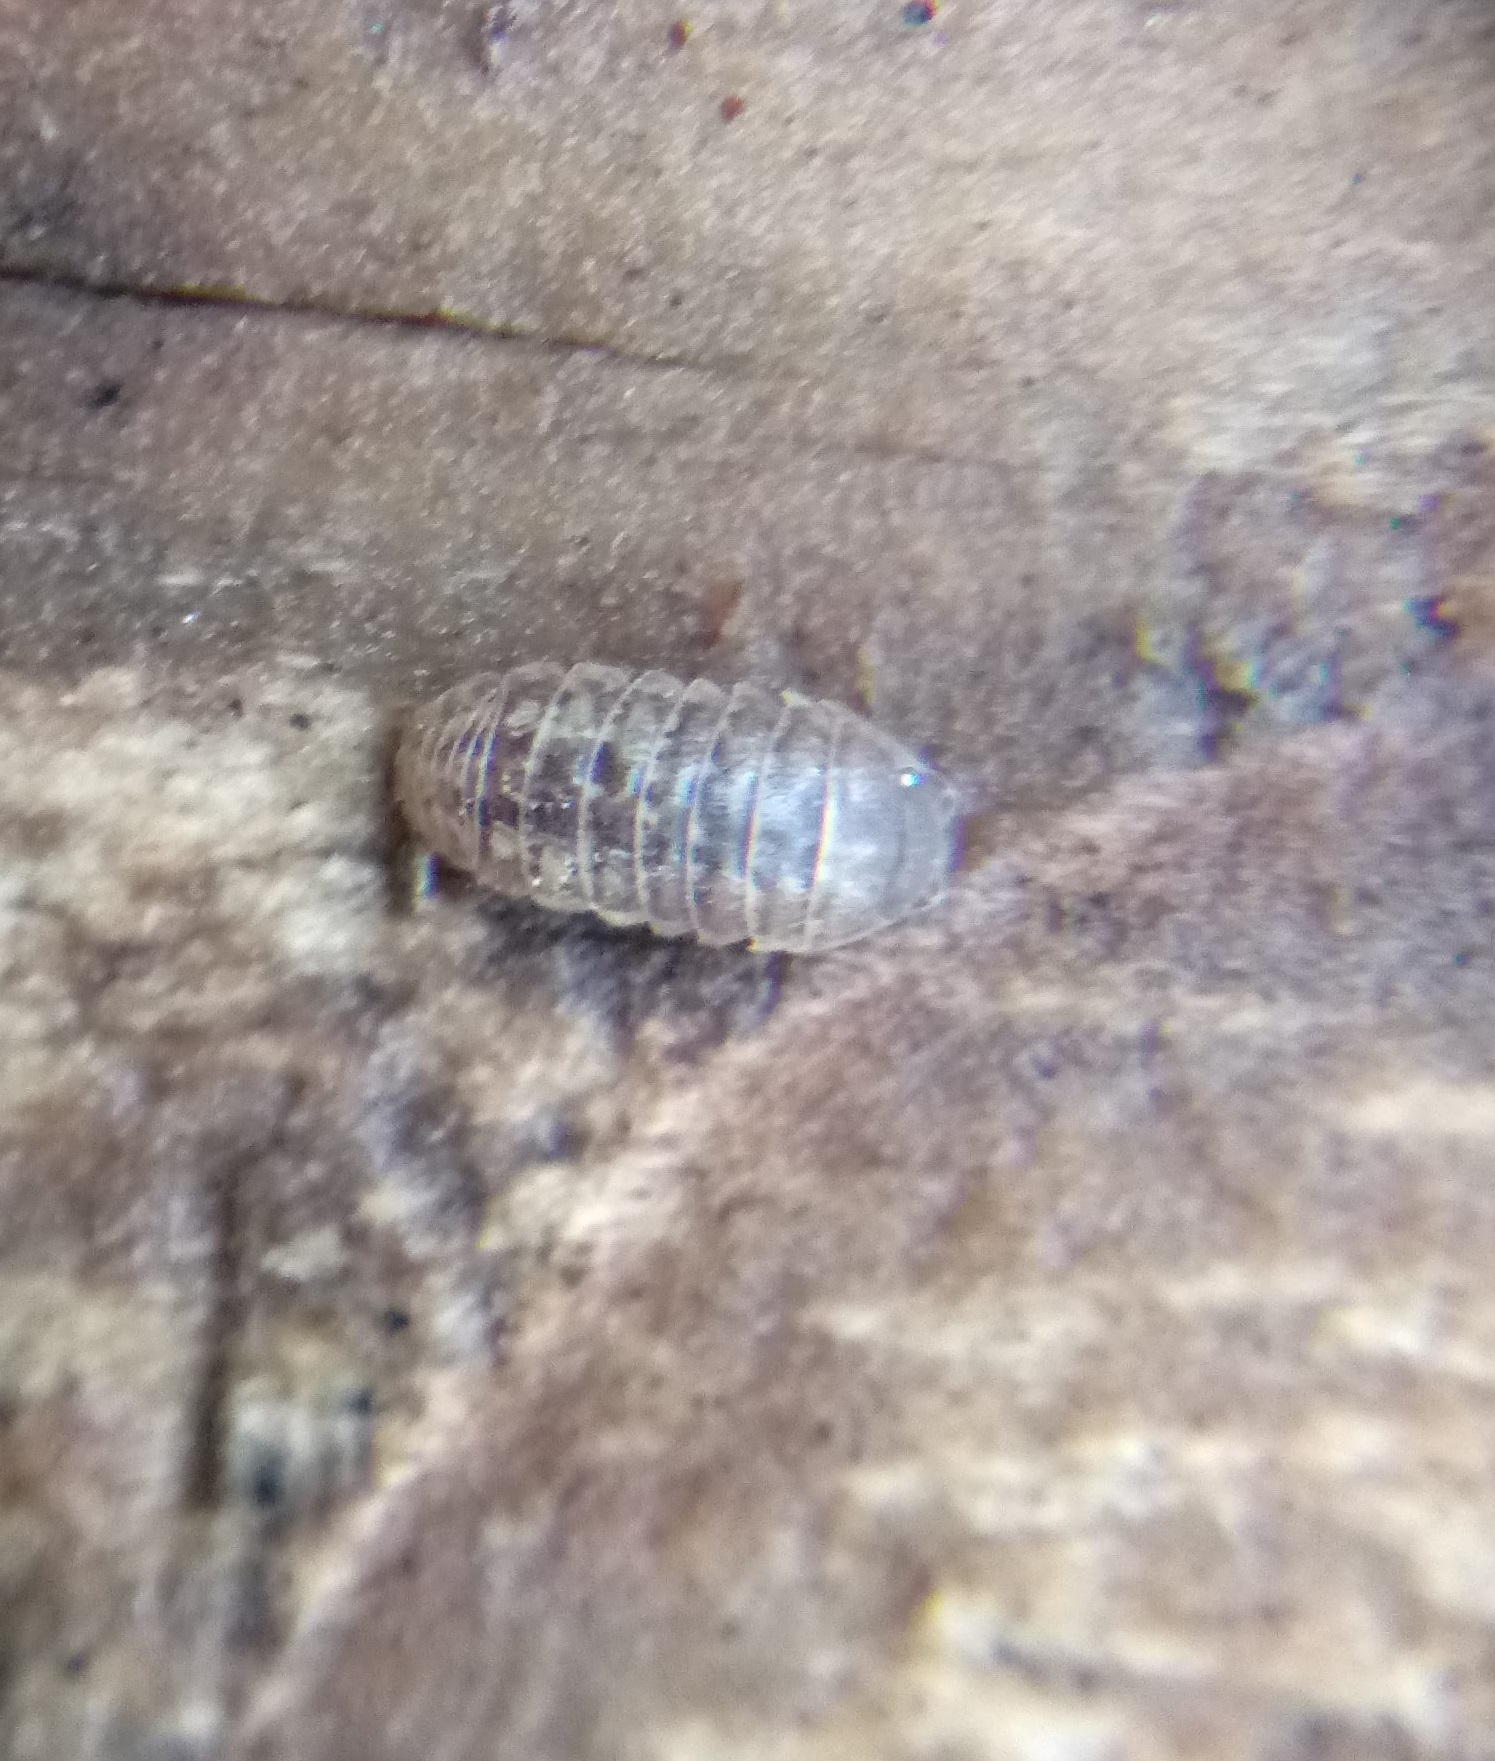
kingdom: Animalia
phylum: Arthropoda
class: Malacostraca
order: Isopoda
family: Armadillidiidae
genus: Armadillidium
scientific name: Armadillidium vulgare
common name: Common pill woodlouse
